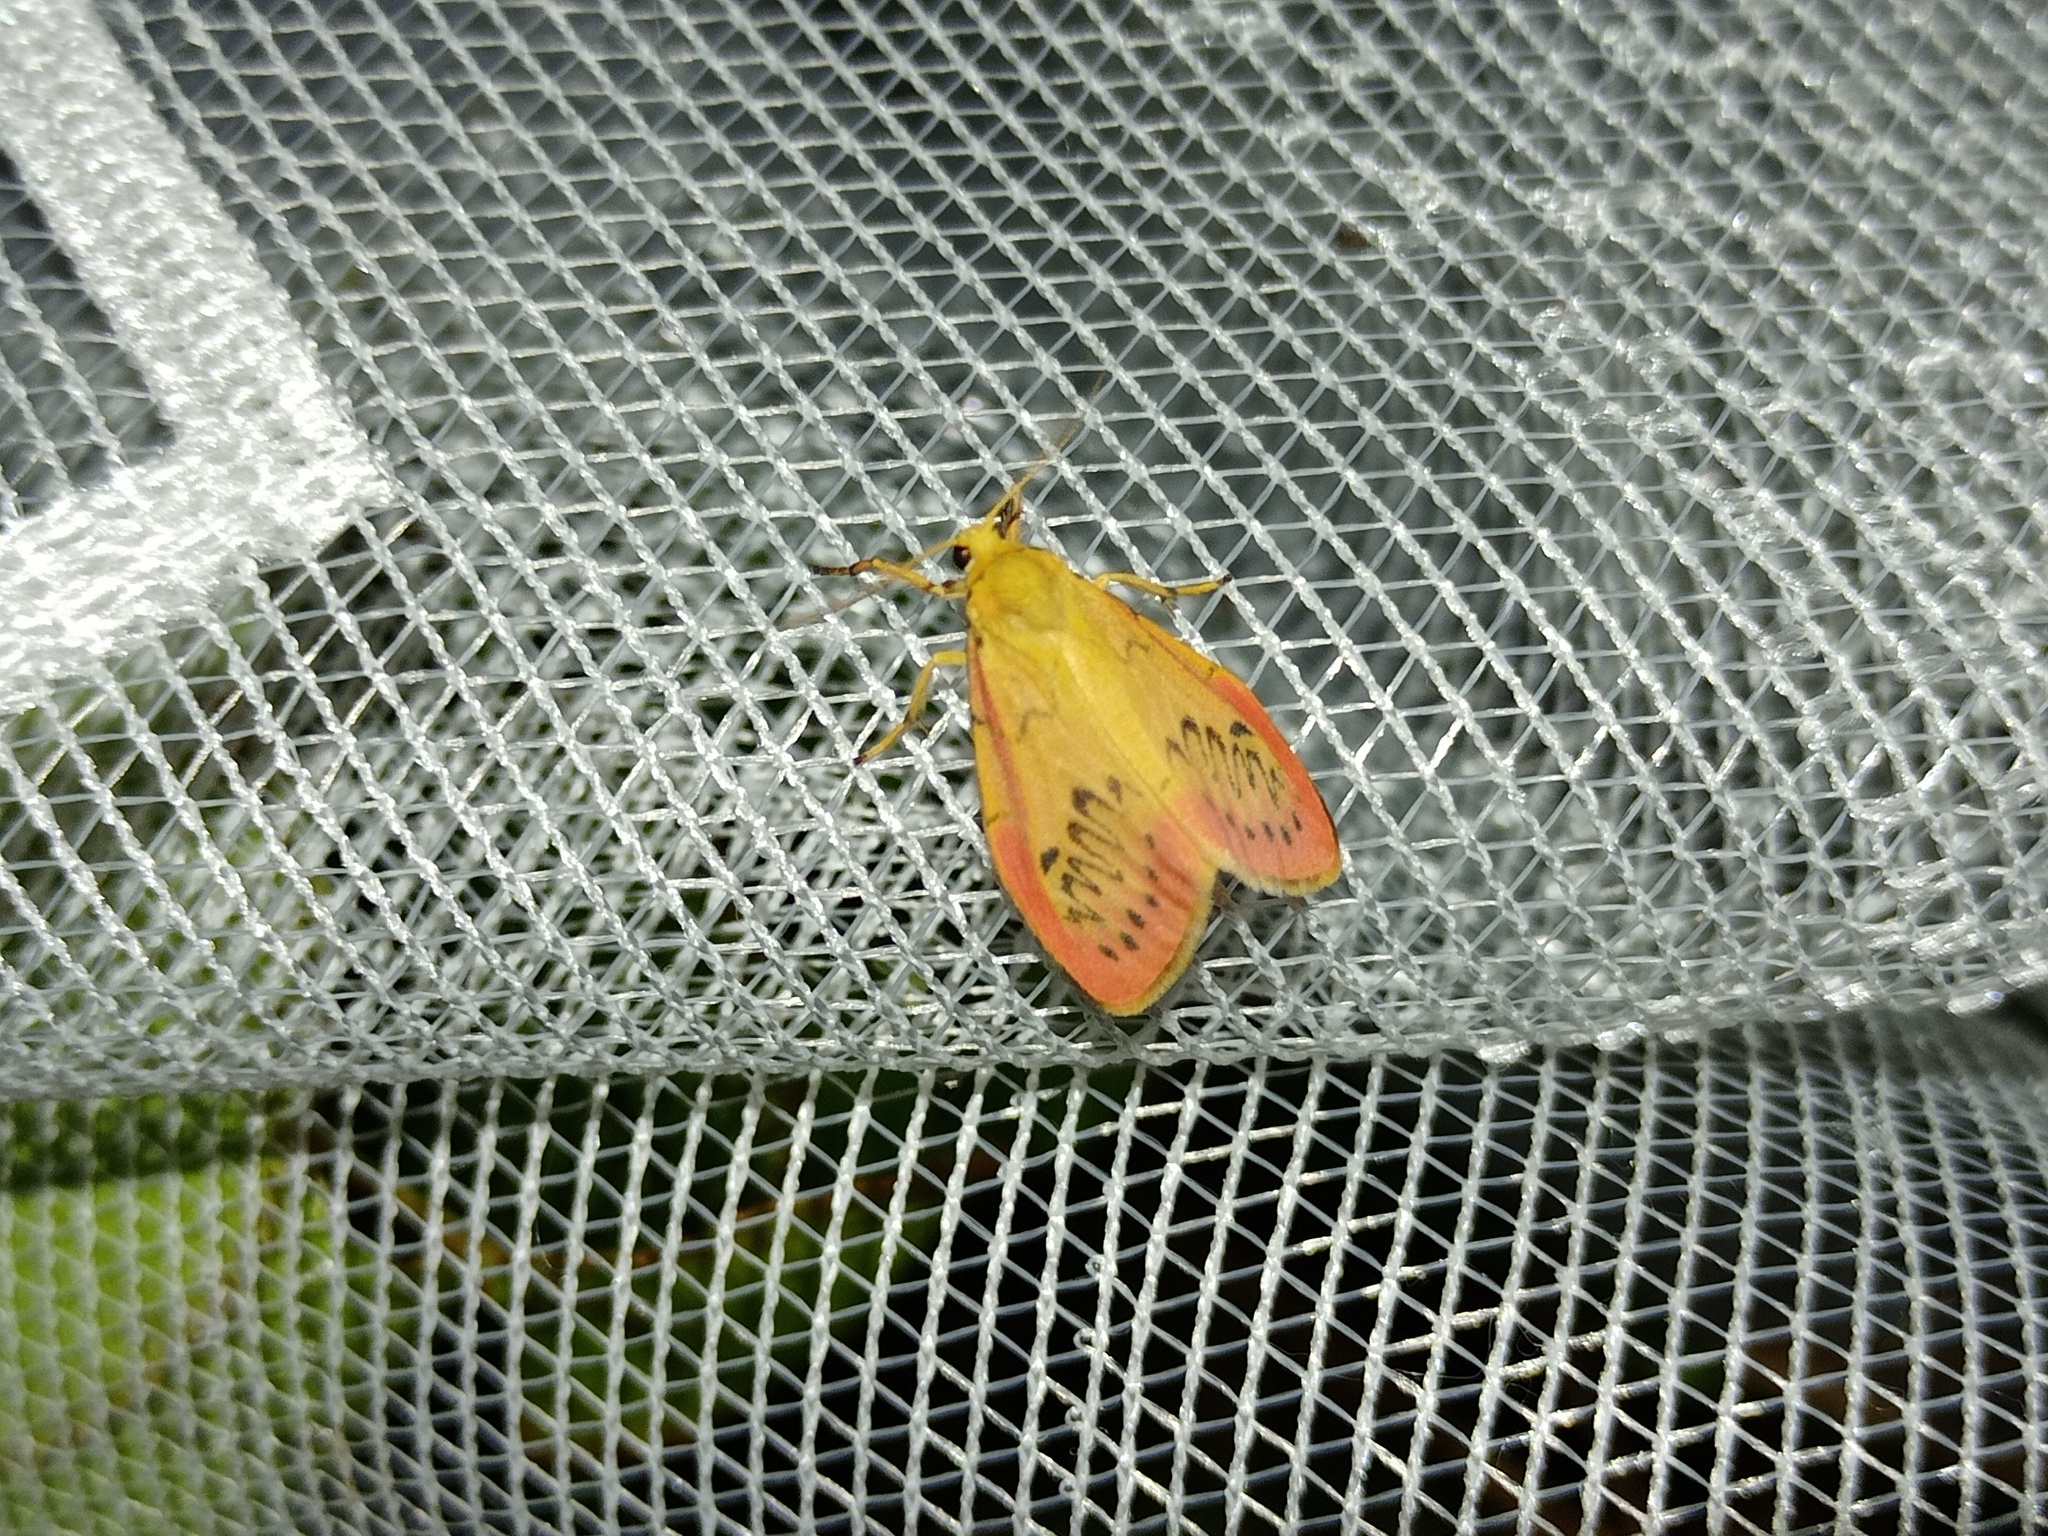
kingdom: Animalia
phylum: Arthropoda
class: Insecta
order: Lepidoptera
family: Erebidae
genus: Miltochrista
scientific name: Miltochrista miniata
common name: Rosy footman
